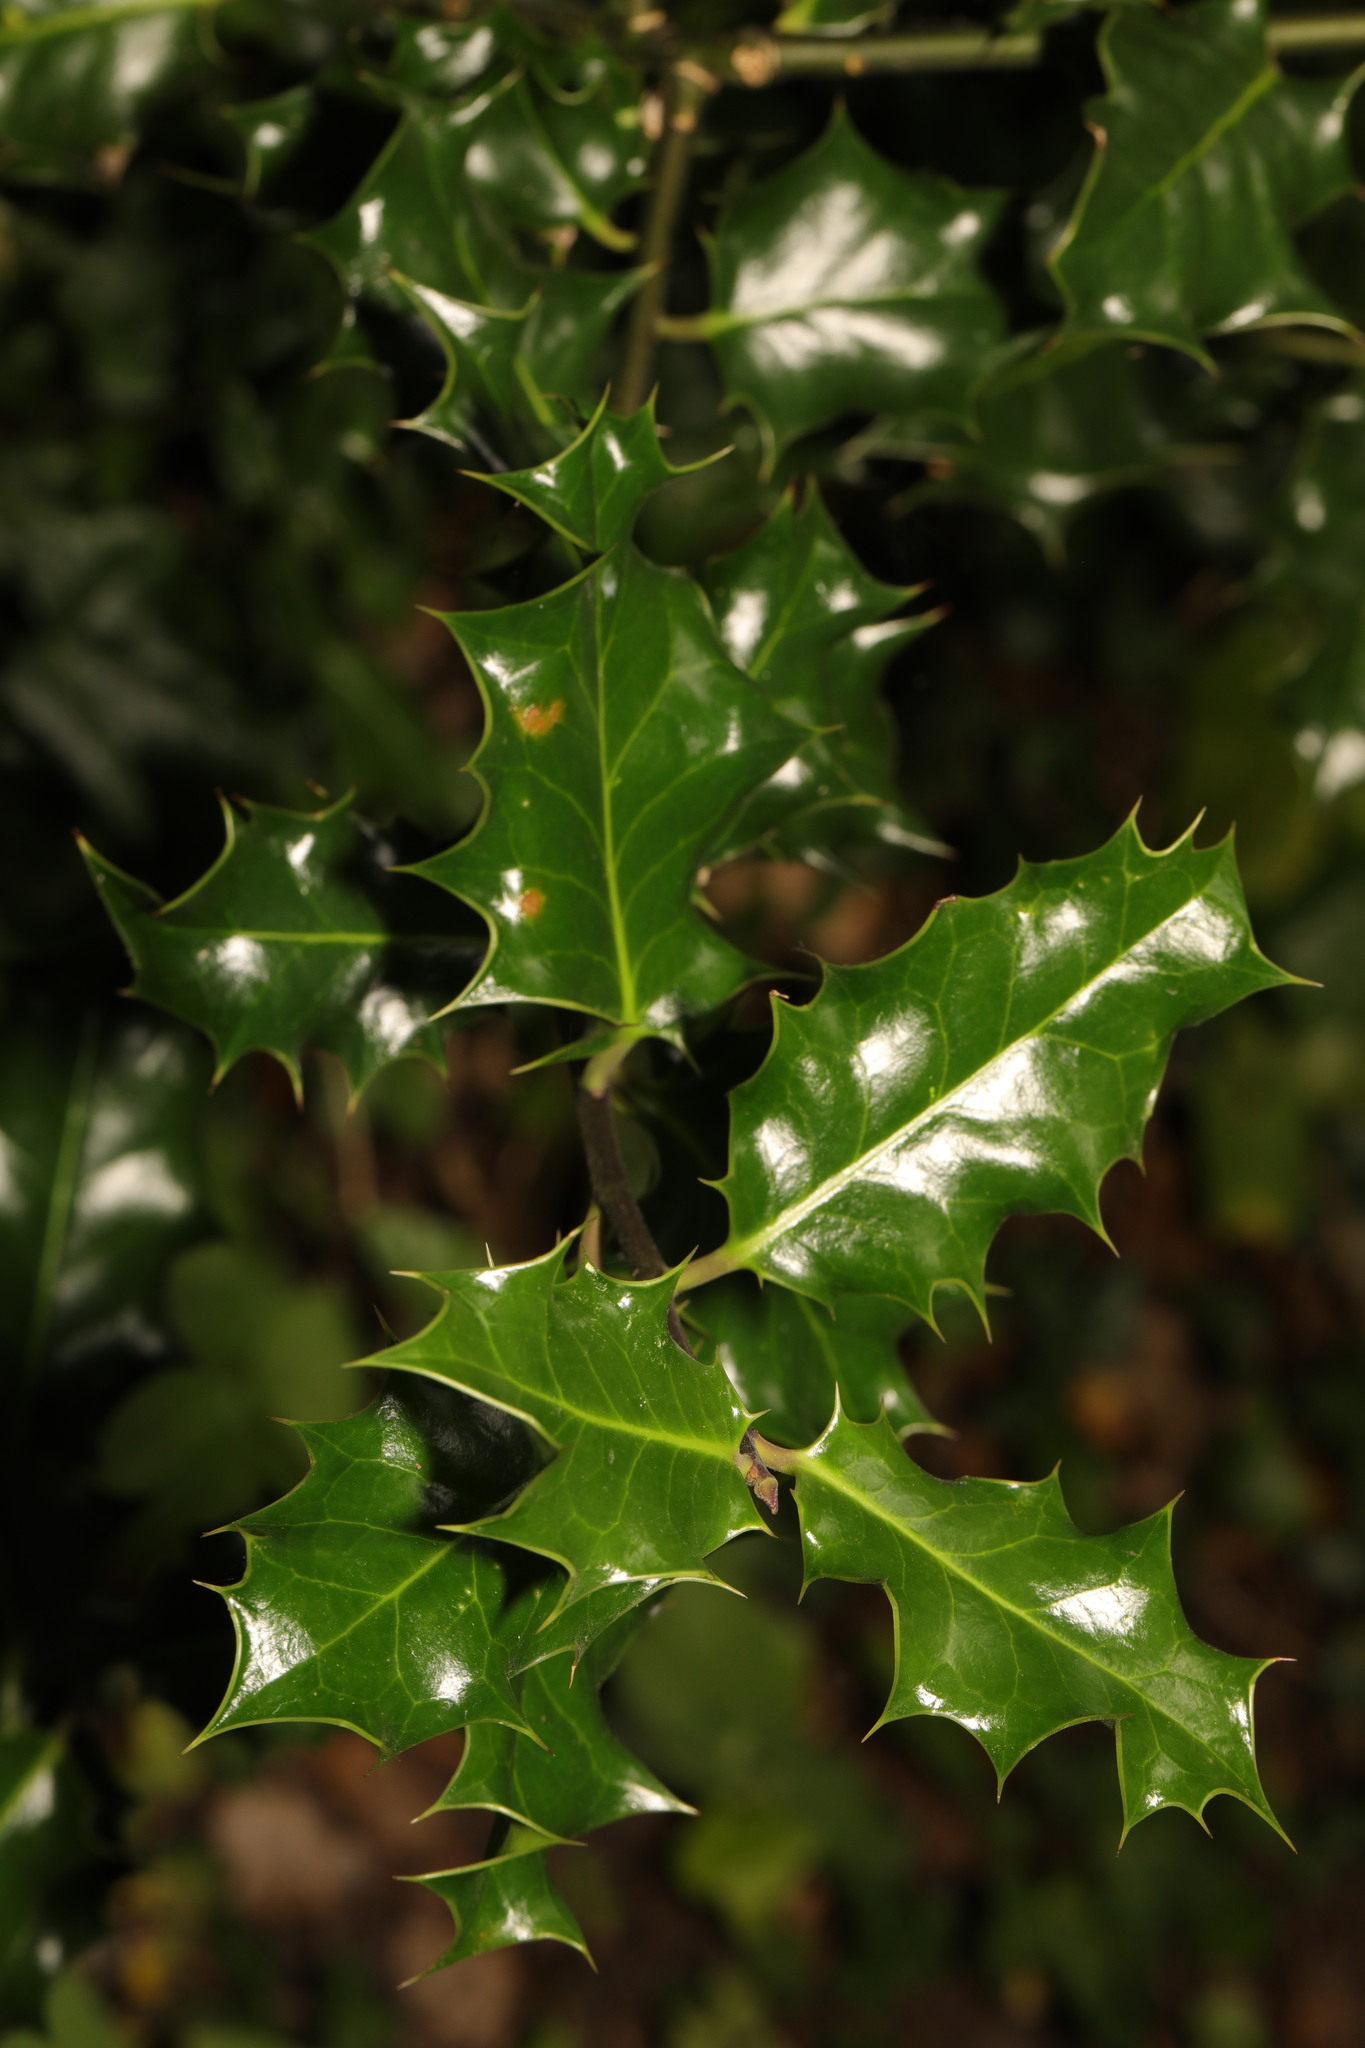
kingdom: Plantae
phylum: Tracheophyta
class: Magnoliopsida
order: Aquifoliales
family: Aquifoliaceae
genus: Ilex
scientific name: Ilex aquifolium
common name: English holly
